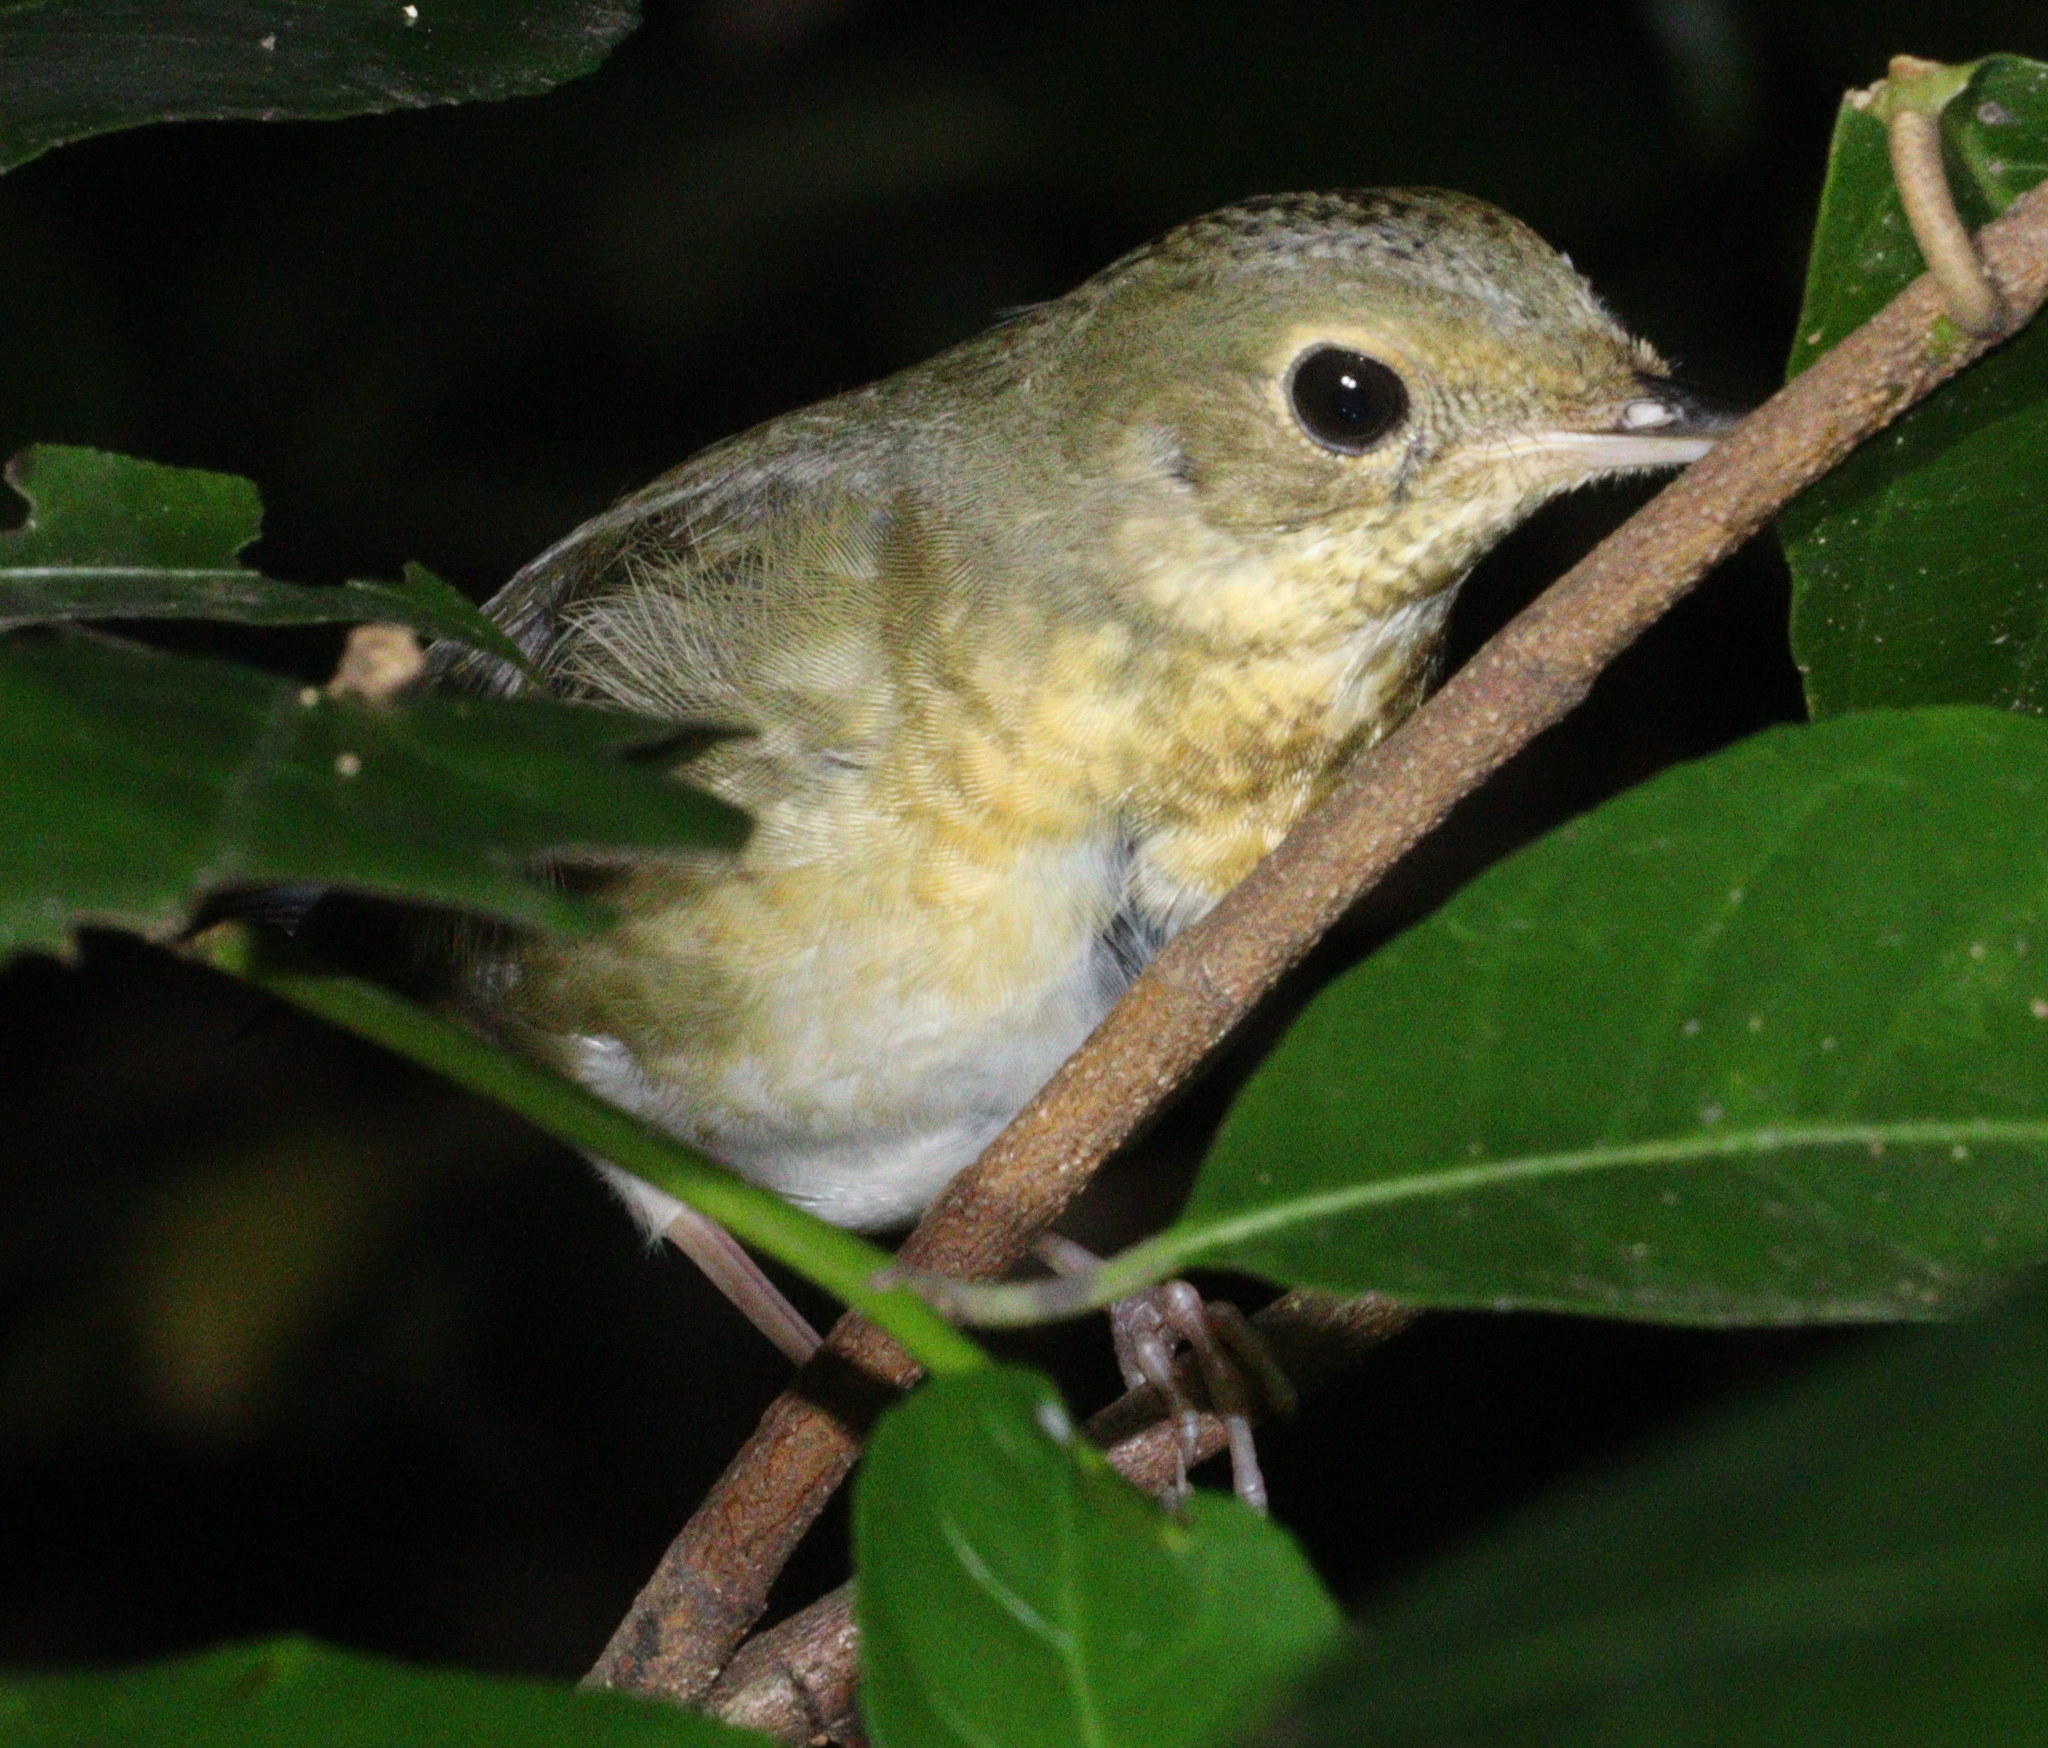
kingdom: Animalia
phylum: Chordata
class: Aves
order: Passeriformes
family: Muscicapidae
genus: Luscinia
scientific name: Luscinia cyane
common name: Siberian blue robin
